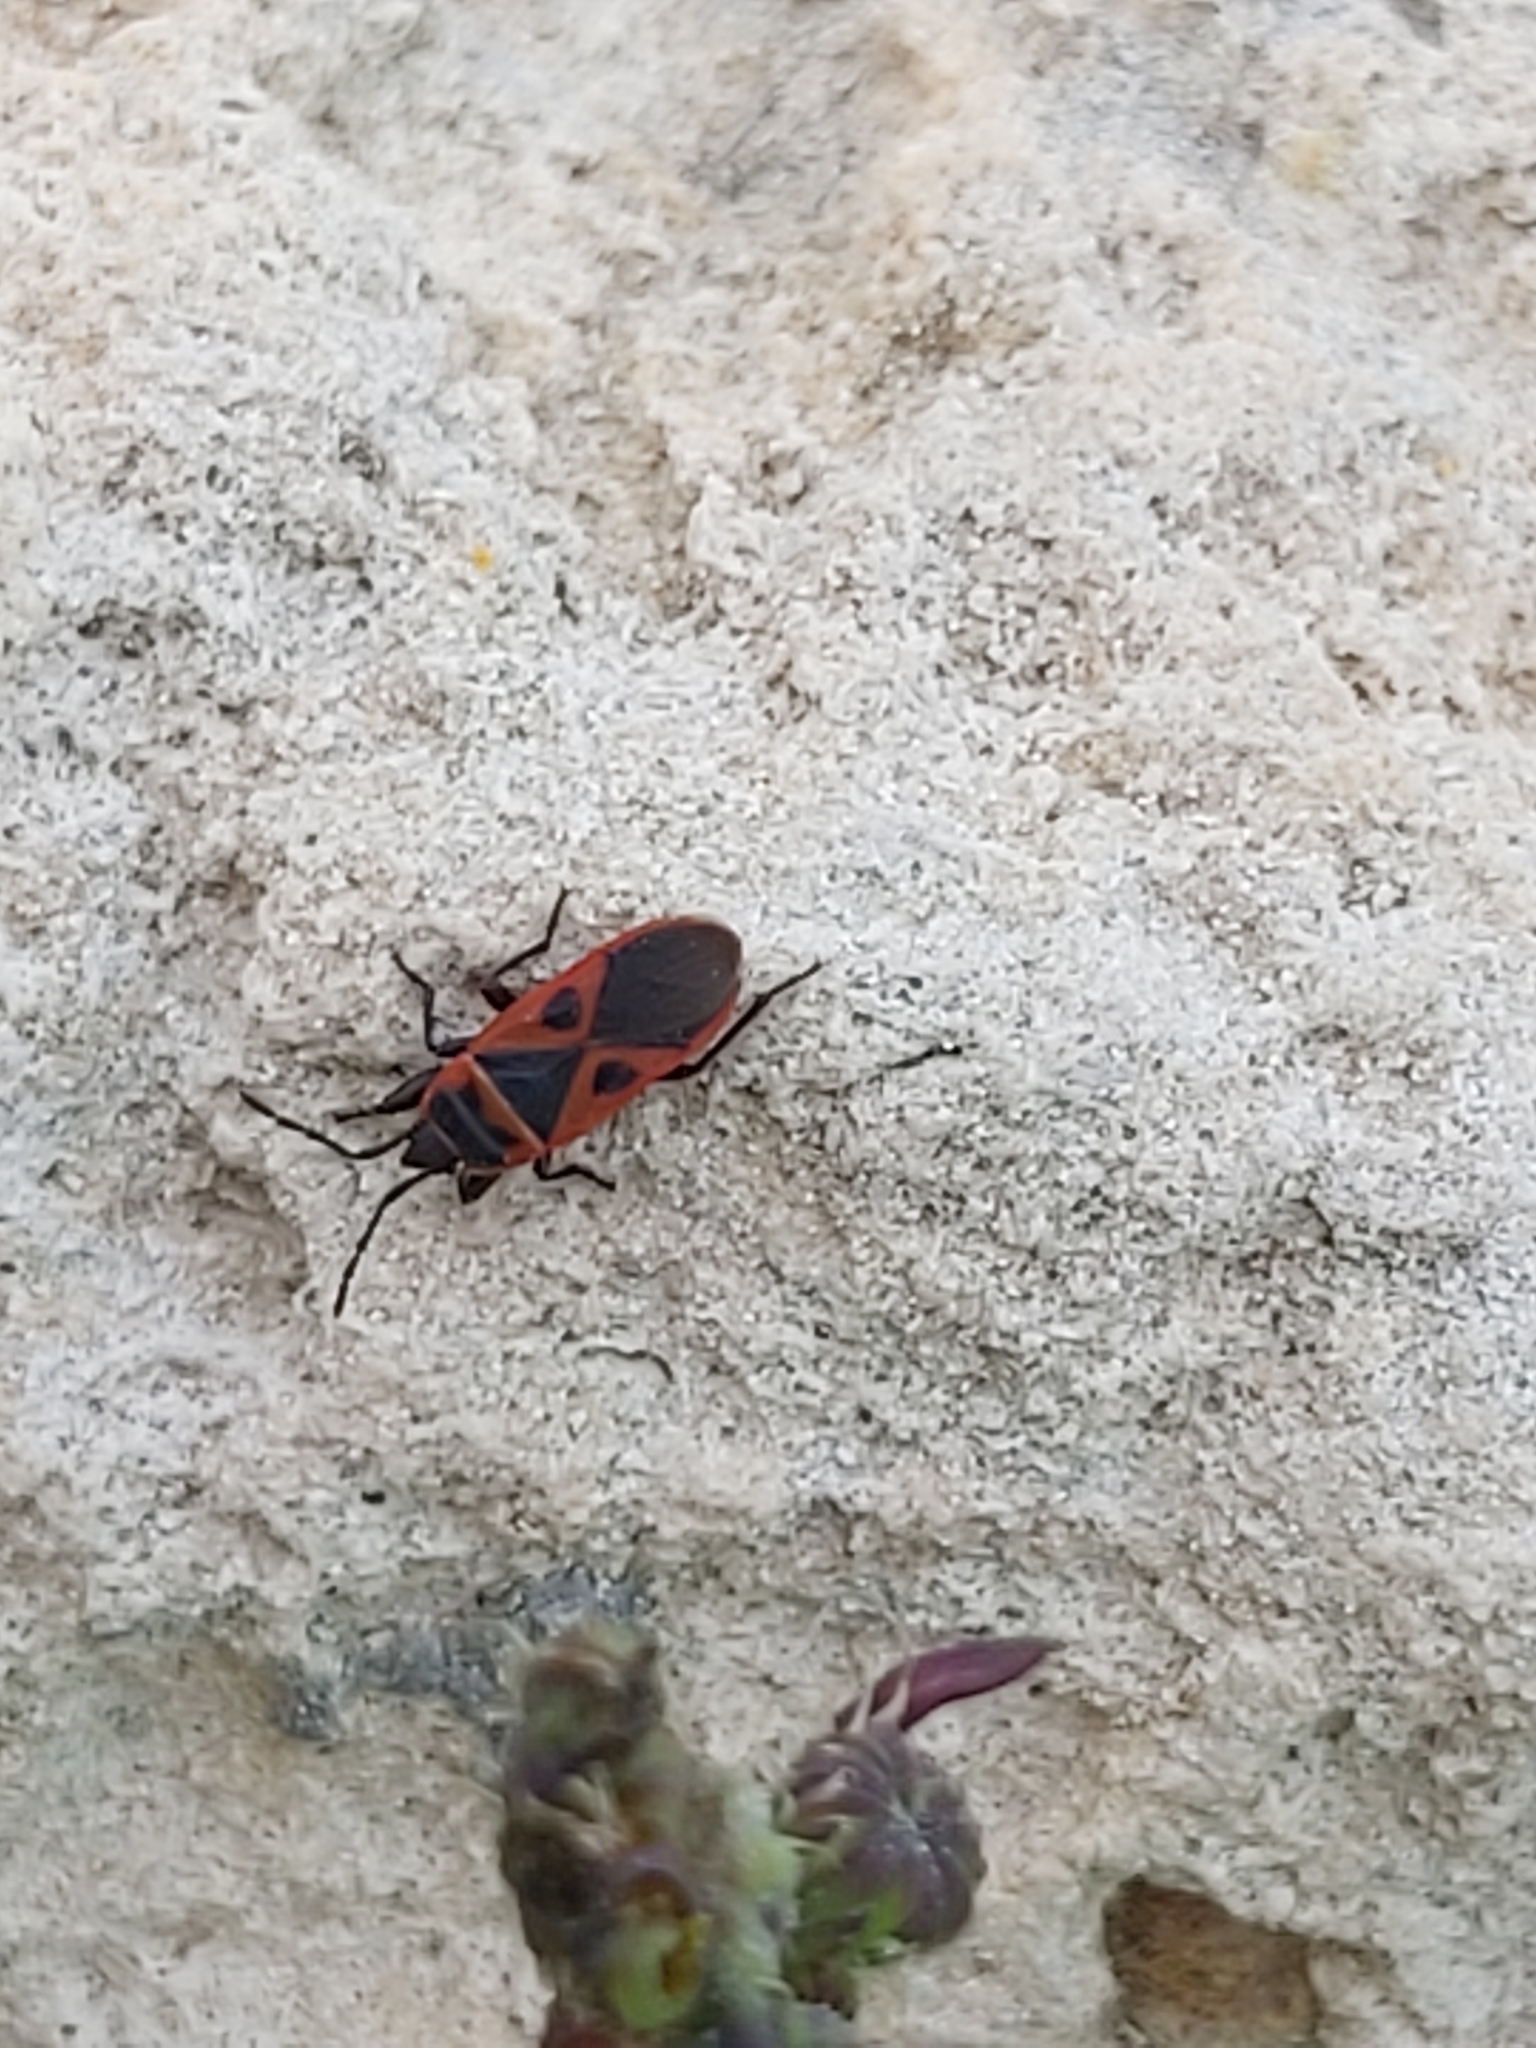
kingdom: Animalia
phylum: Arthropoda
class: Insecta
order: Hemiptera
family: Pyrrhocoridae
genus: Scantius
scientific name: Scantius aegyptius
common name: Red bug
